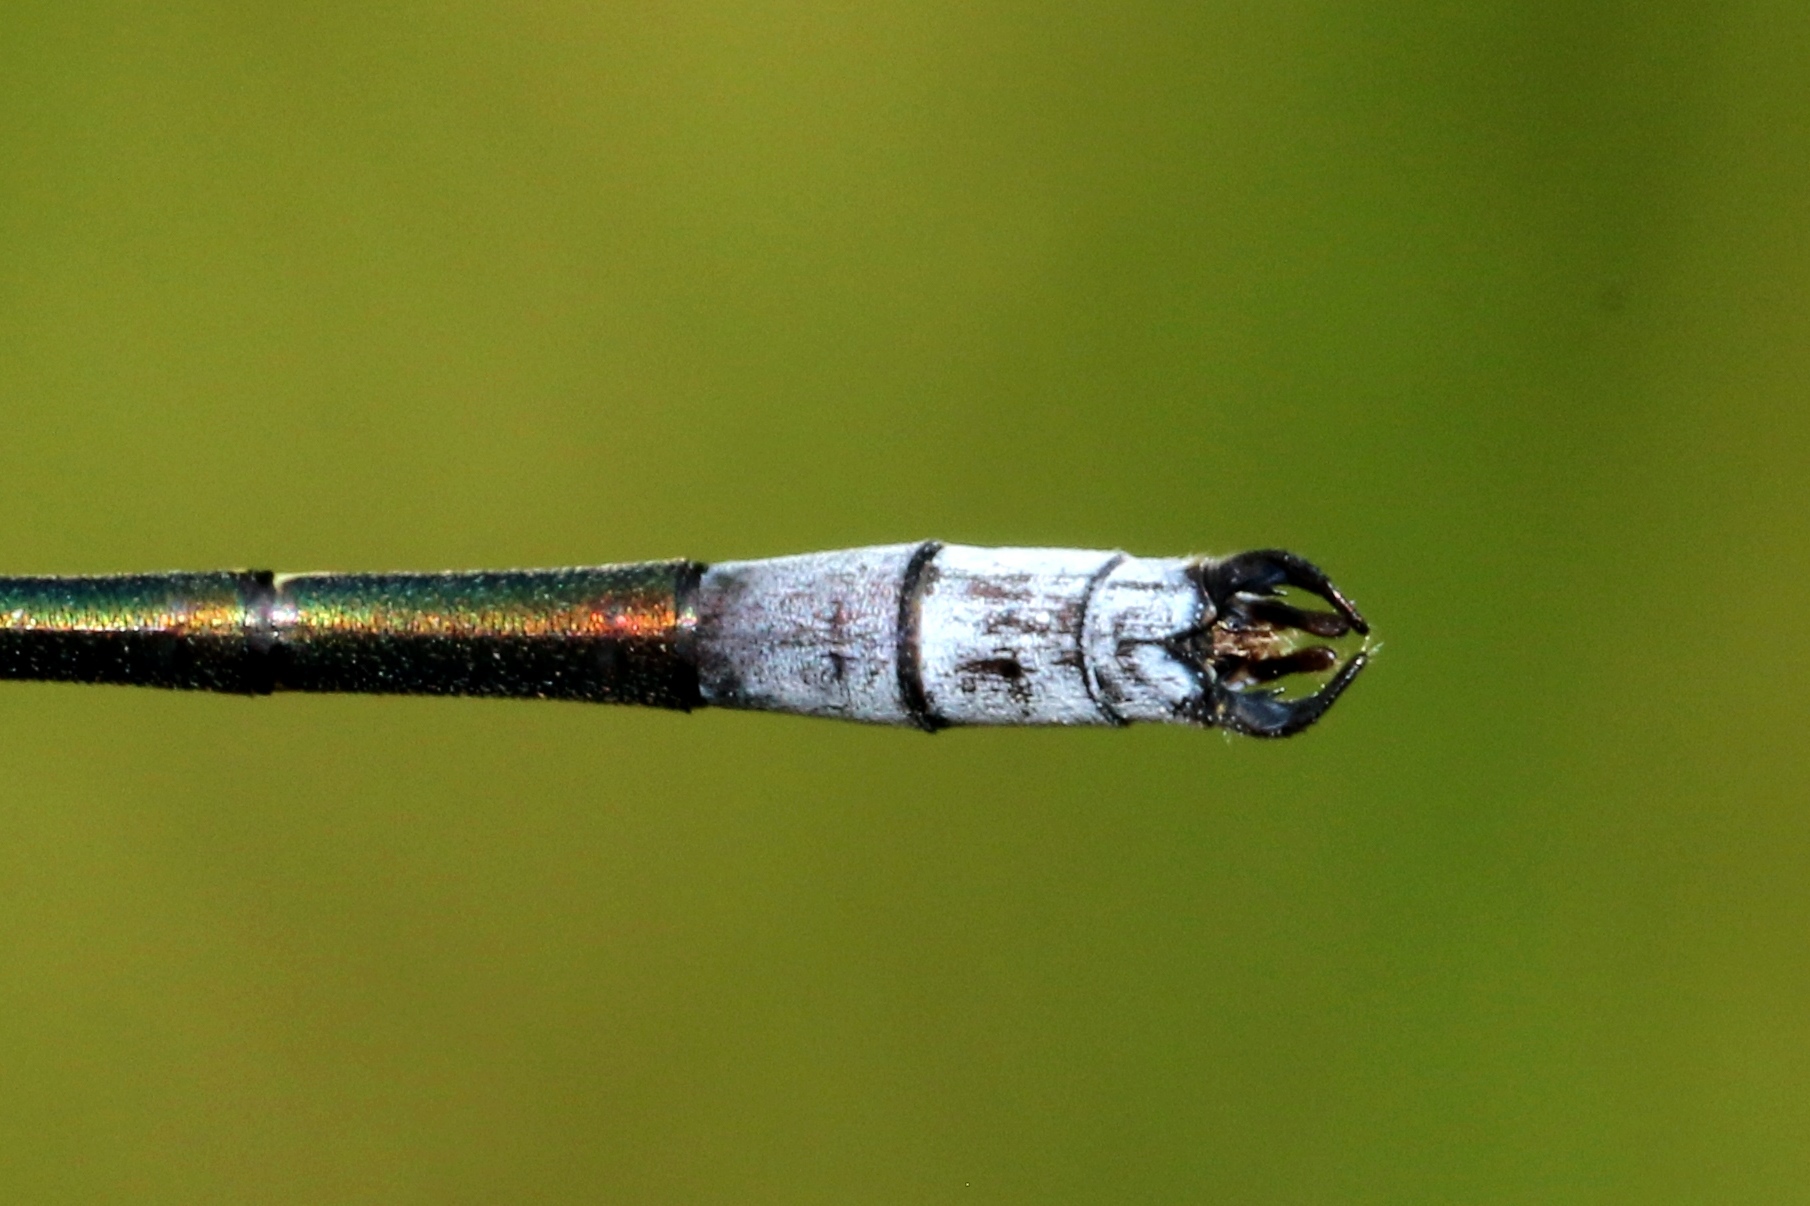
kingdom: Animalia
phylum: Arthropoda
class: Insecta
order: Odonata
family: Lestidae
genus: Lestes
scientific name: Lestes disjunctus
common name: Northern spreadwing
